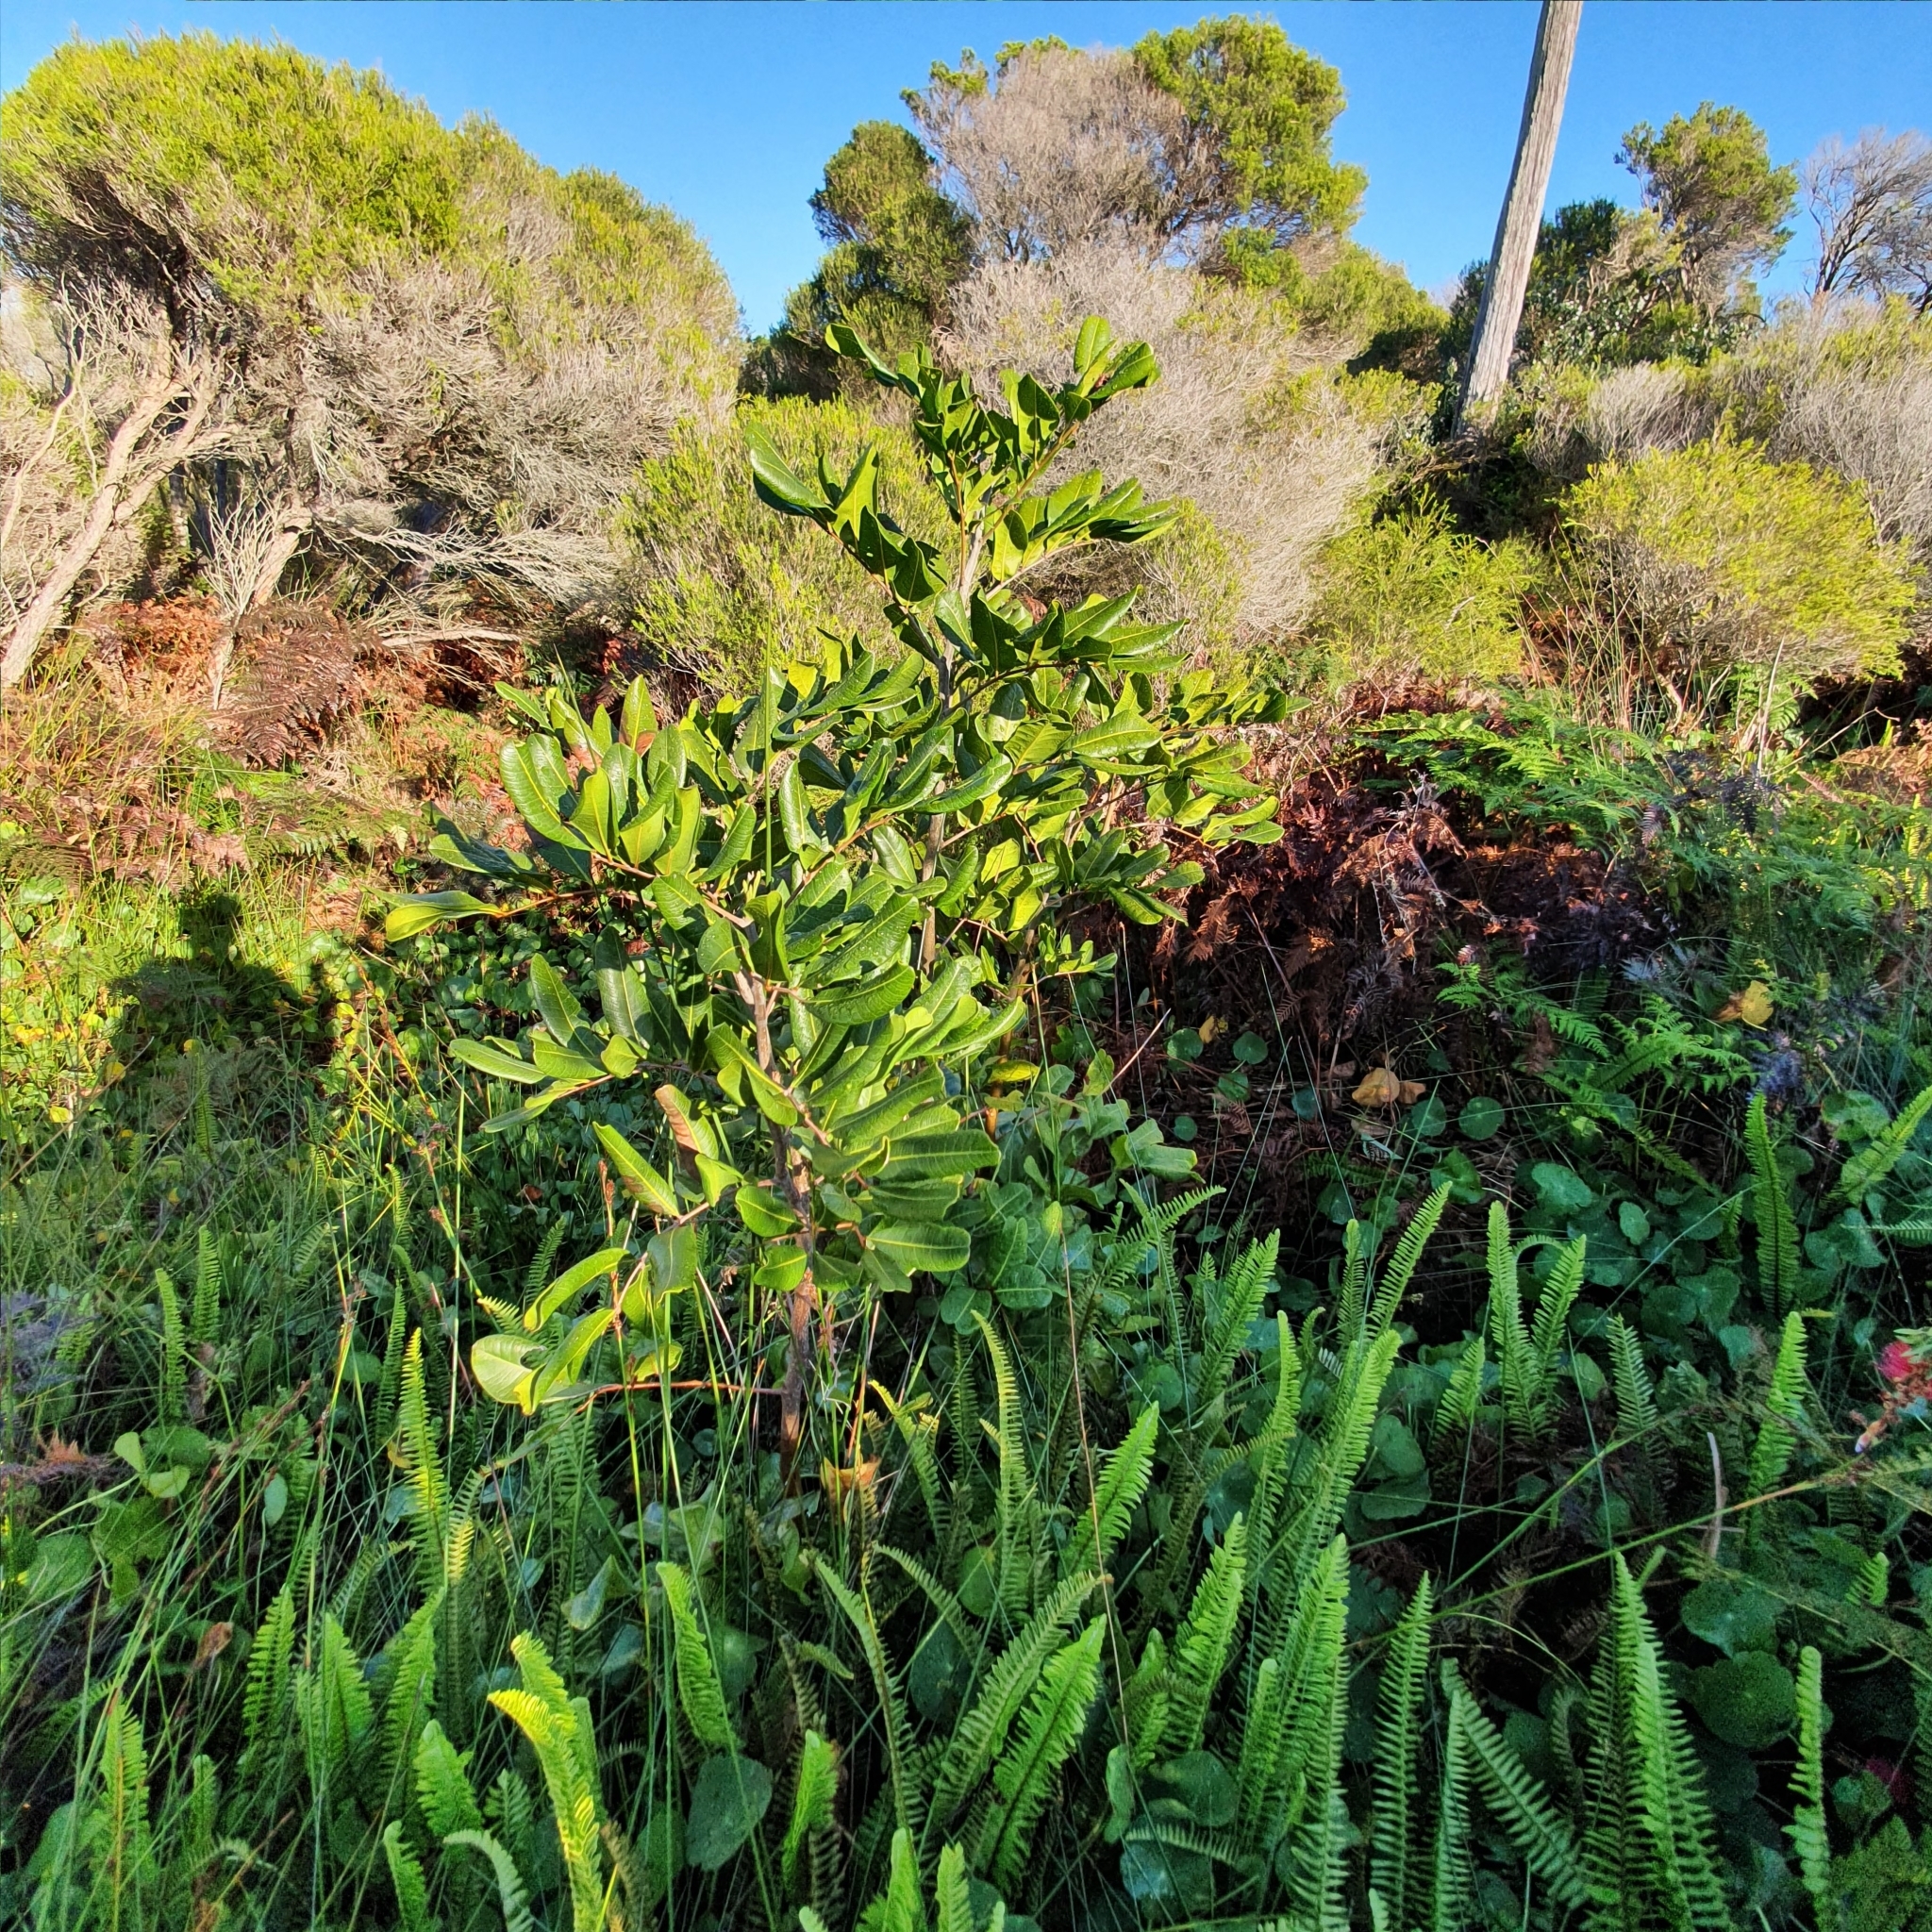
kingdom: Plantae
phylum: Tracheophyta
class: Magnoliopsida
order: Sapindales
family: Sapindaceae
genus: Cupaniopsis
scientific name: Cupaniopsis anacardioides
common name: Carrotwood
